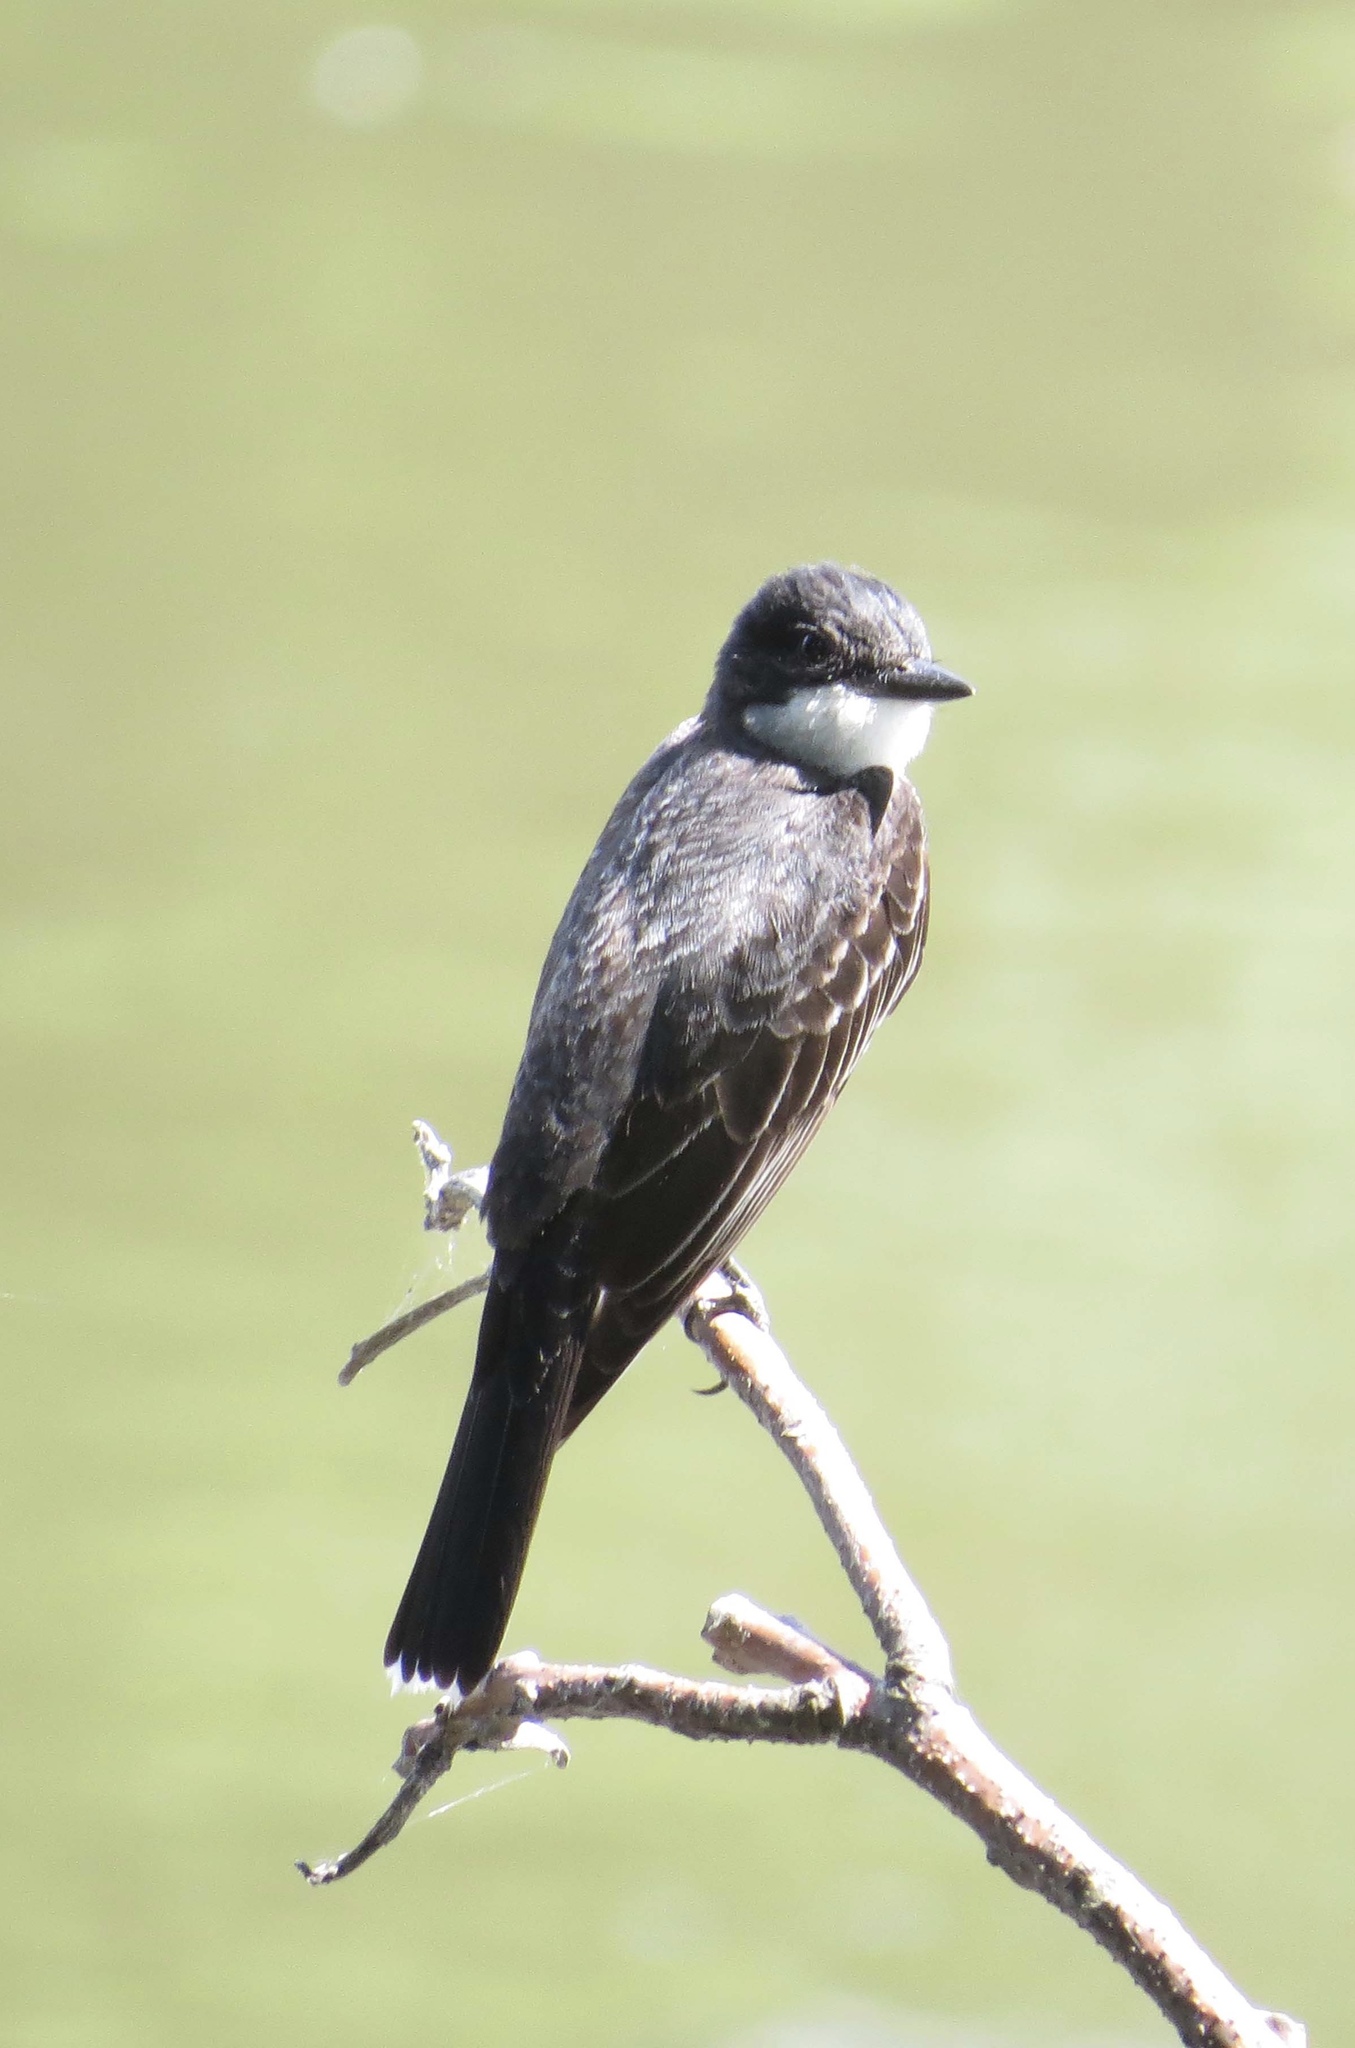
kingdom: Animalia
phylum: Chordata
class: Aves
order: Passeriformes
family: Tyrannidae
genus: Tyrannus
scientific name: Tyrannus tyrannus
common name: Eastern kingbird
